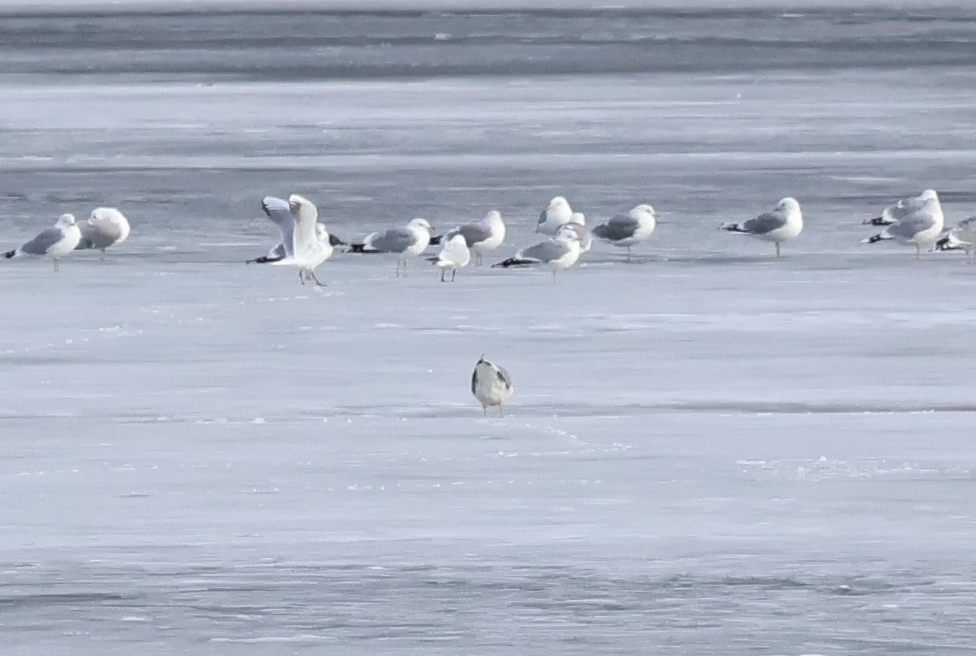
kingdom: Animalia
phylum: Chordata
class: Aves
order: Charadriiformes
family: Laridae
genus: Chroicocephalus
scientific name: Chroicocephalus ridibundus
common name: Black-headed gull
